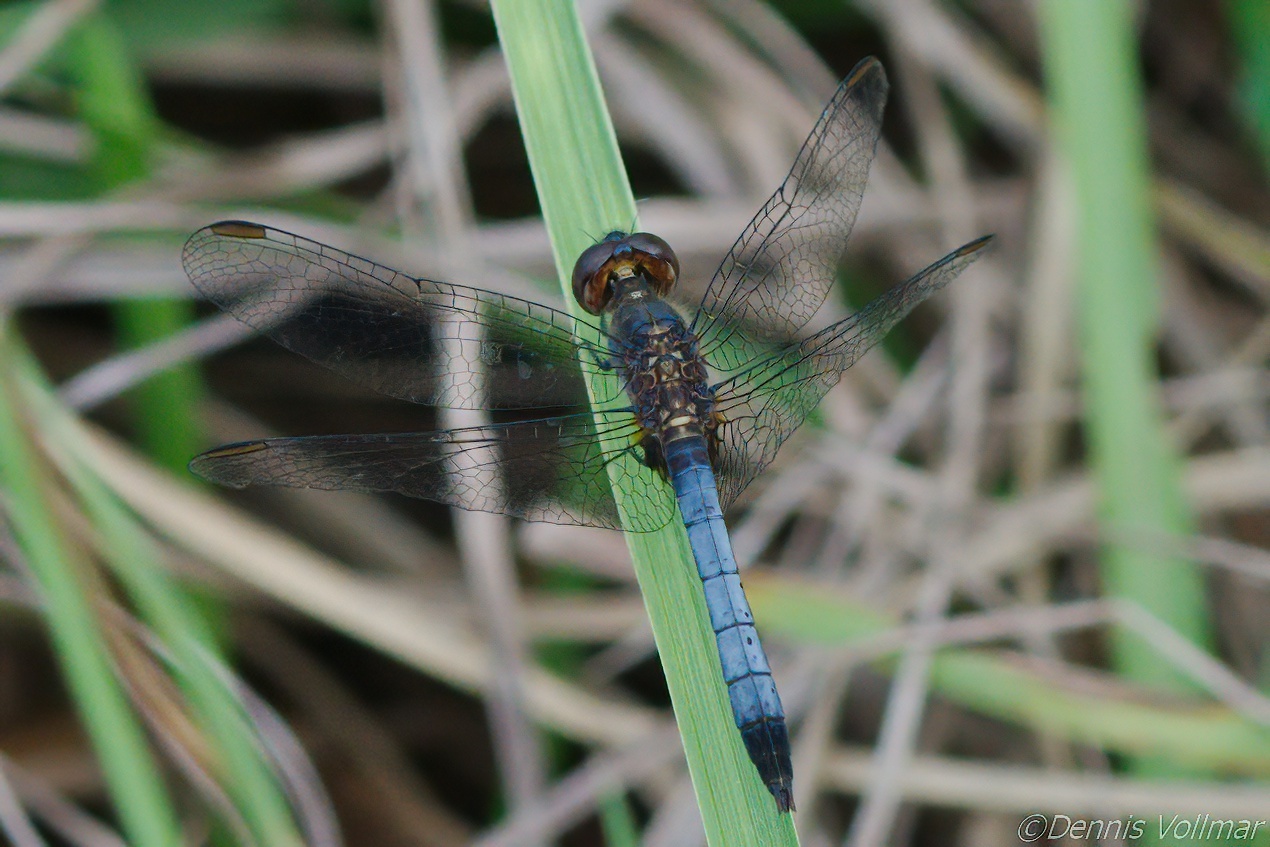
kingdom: Animalia
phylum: Arthropoda
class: Insecta
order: Odonata
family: Libellulidae
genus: Erythrodiplax
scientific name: Erythrodiplax minuscula
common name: Little blue dragonlet
